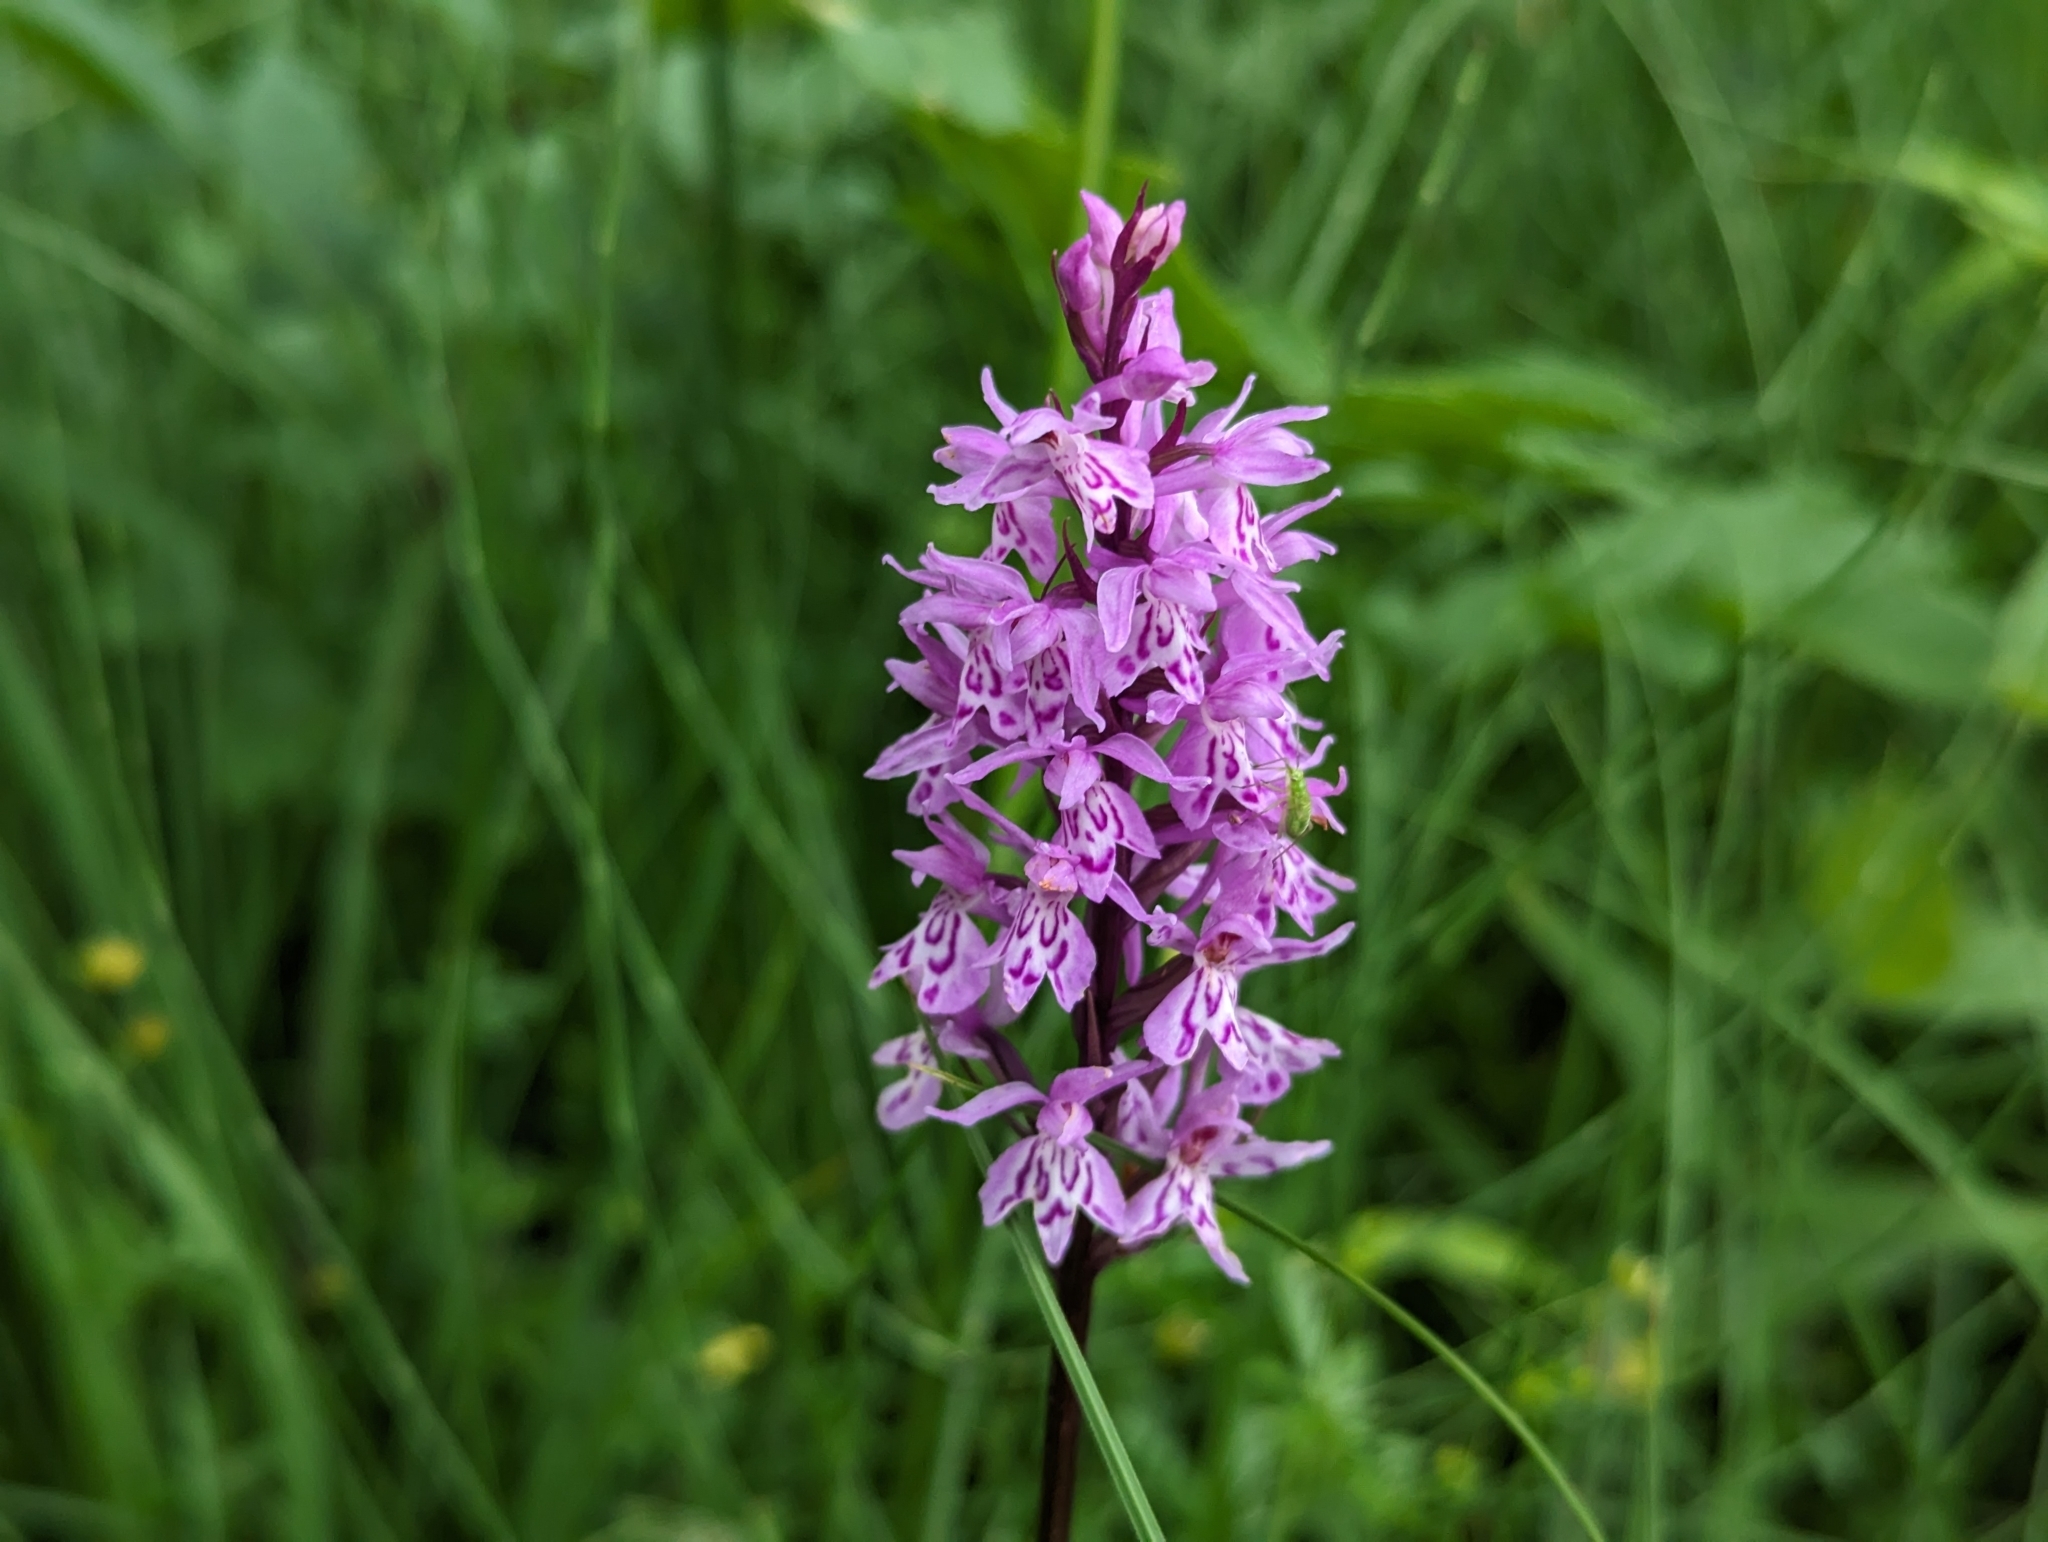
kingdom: Plantae
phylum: Tracheophyta
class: Liliopsida
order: Asparagales
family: Orchidaceae
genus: Dactylorhiza
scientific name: Dactylorhiza maculata
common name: Heath spotted-orchid
